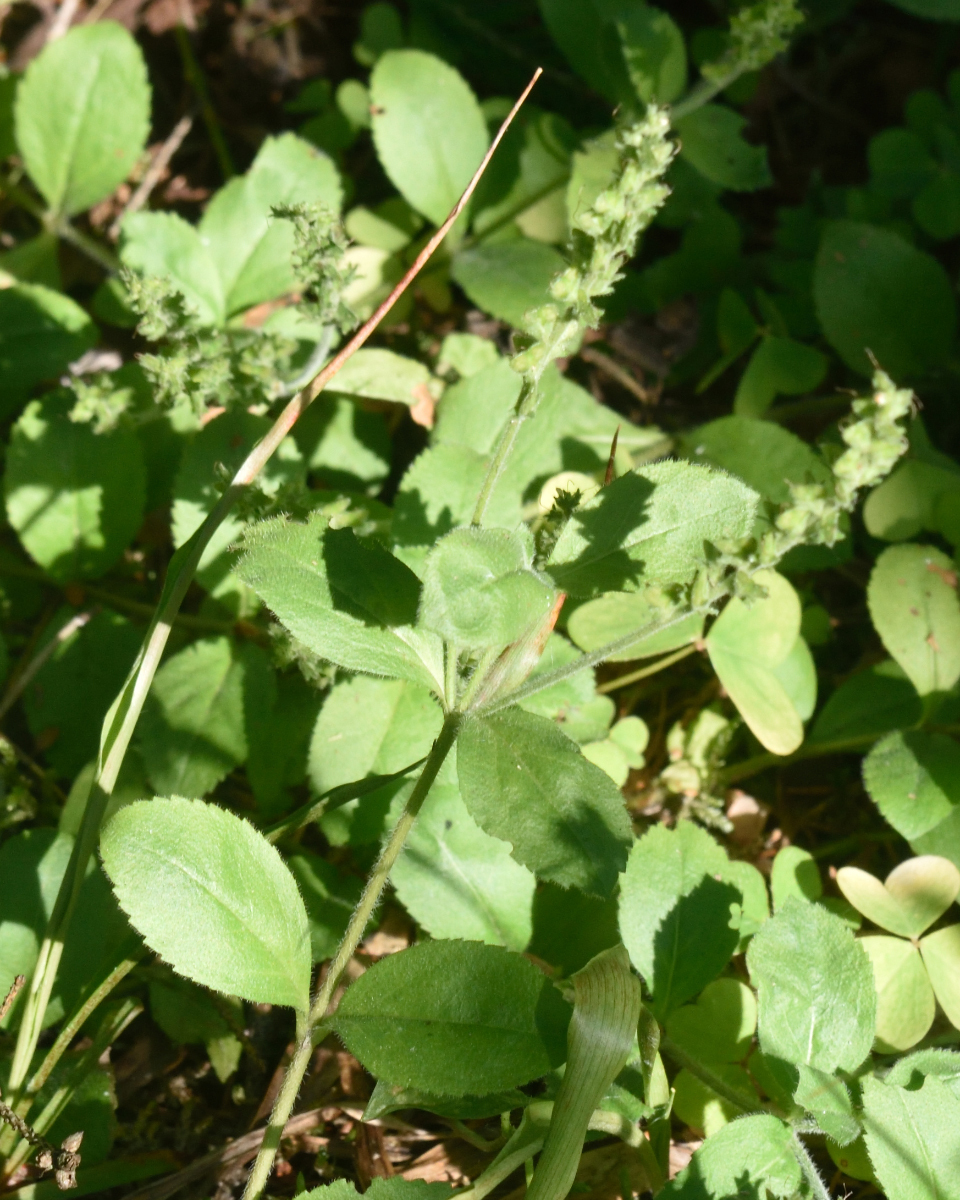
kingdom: Plantae
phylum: Tracheophyta
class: Magnoliopsida
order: Lamiales
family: Plantaginaceae
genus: Veronica
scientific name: Veronica officinalis
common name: Common speedwell
